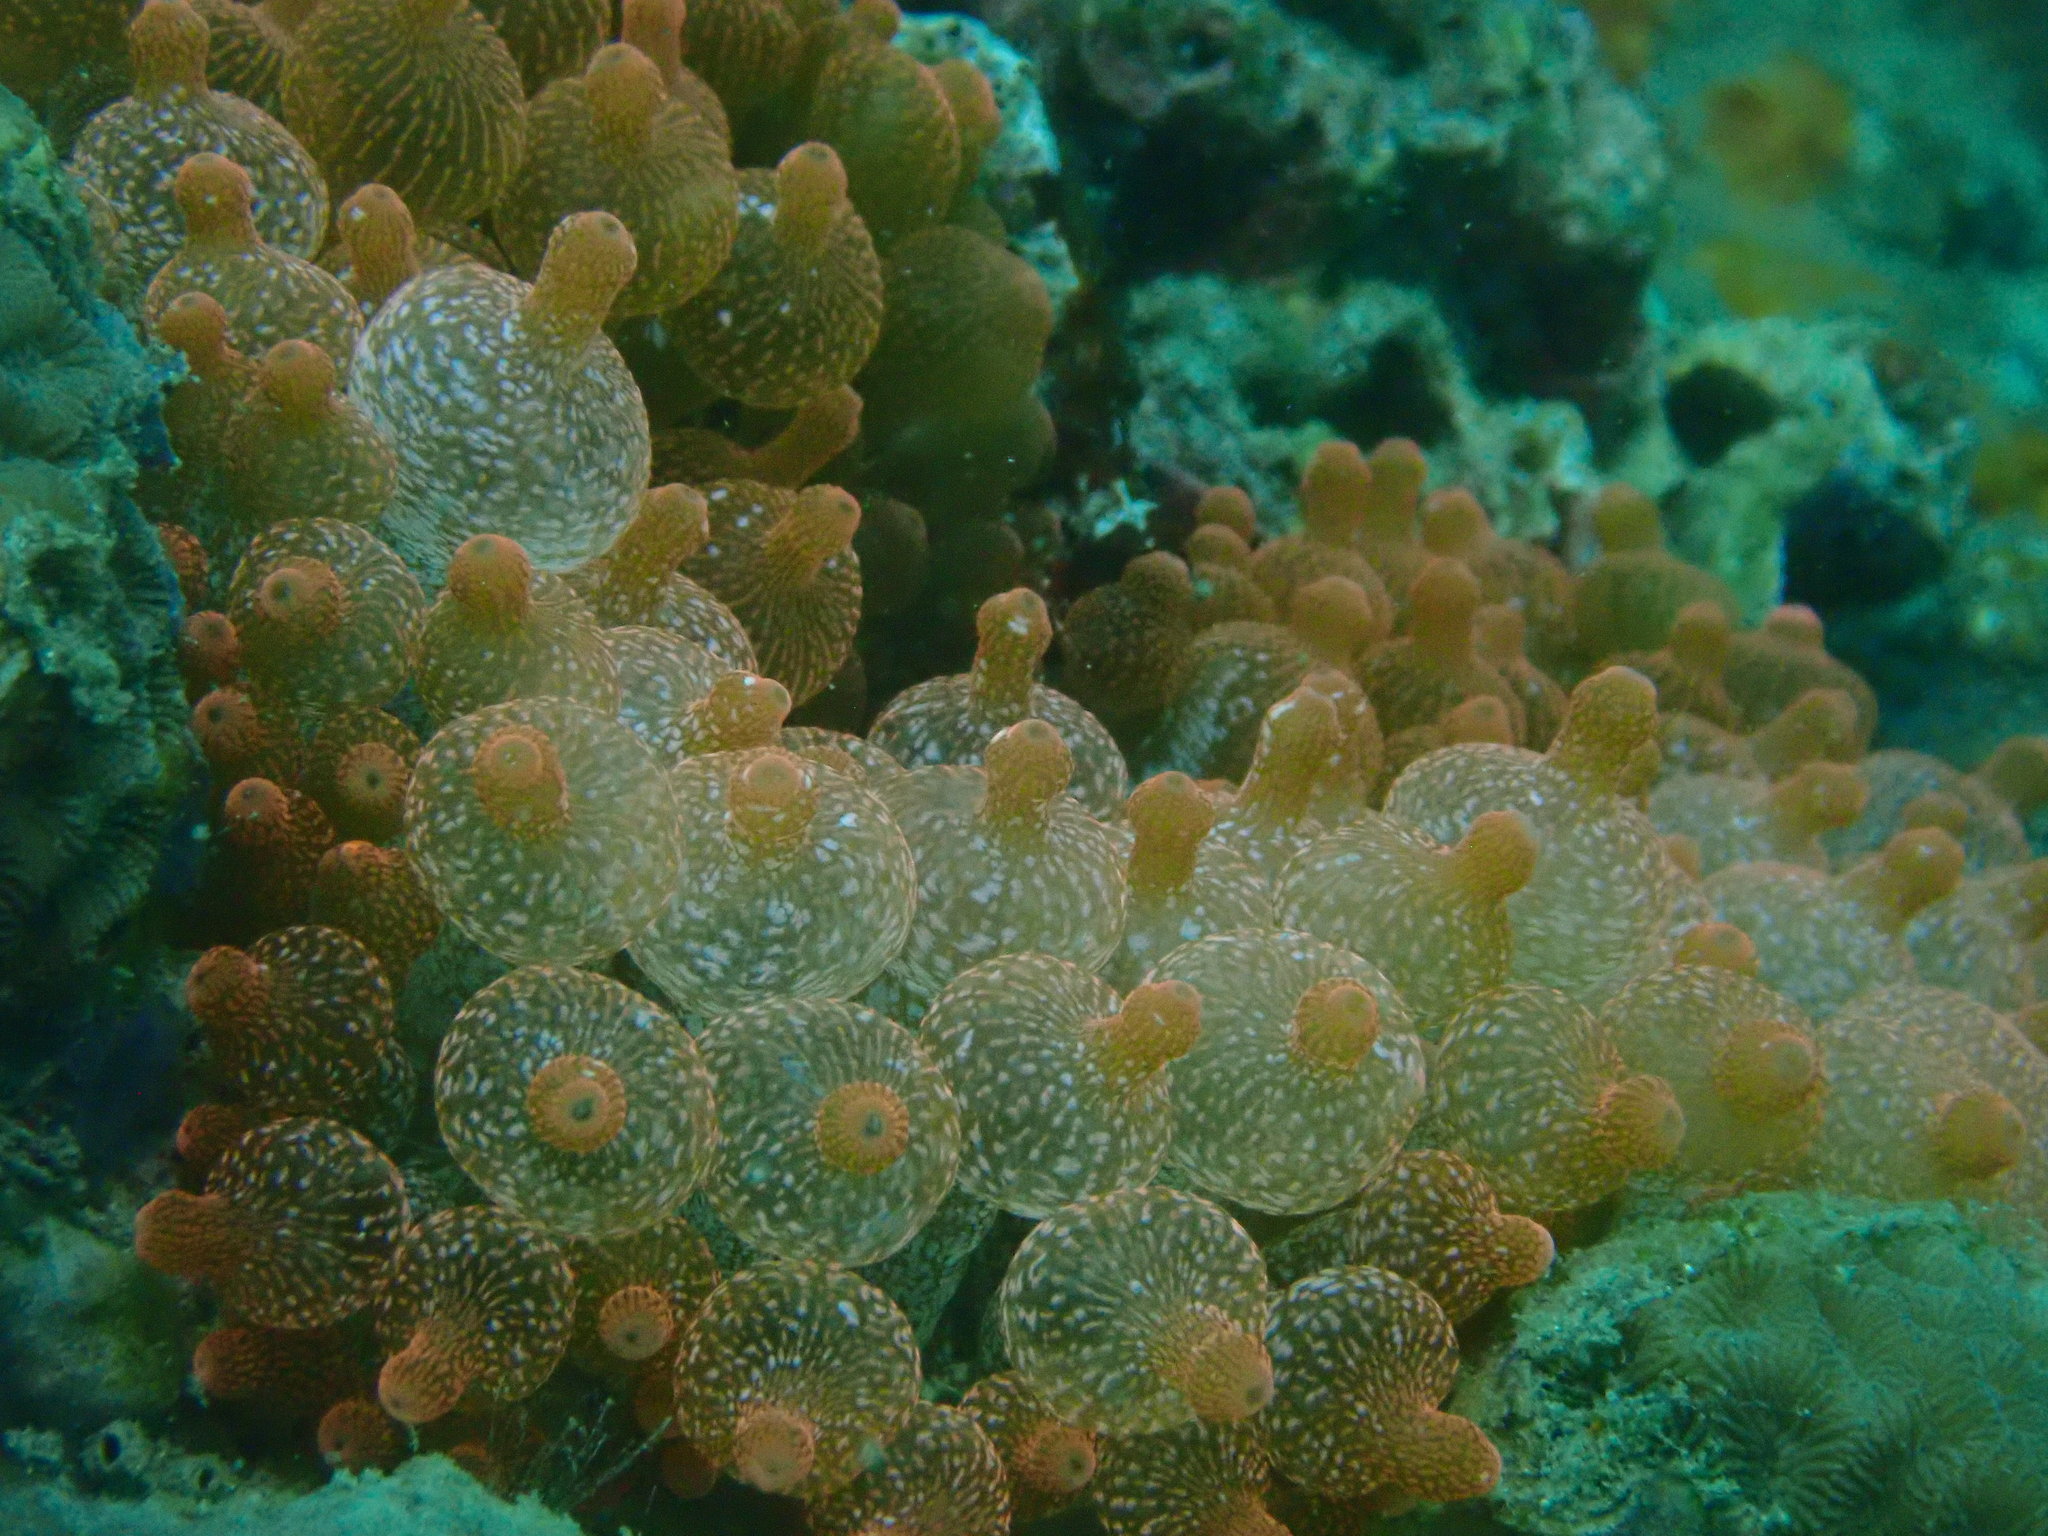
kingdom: Animalia
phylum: Cnidaria
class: Anthozoa
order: Actiniaria
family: Actiniidae
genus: Entacmaea
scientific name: Entacmaea quadricolor
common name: Bulb tentacle sea anemone
